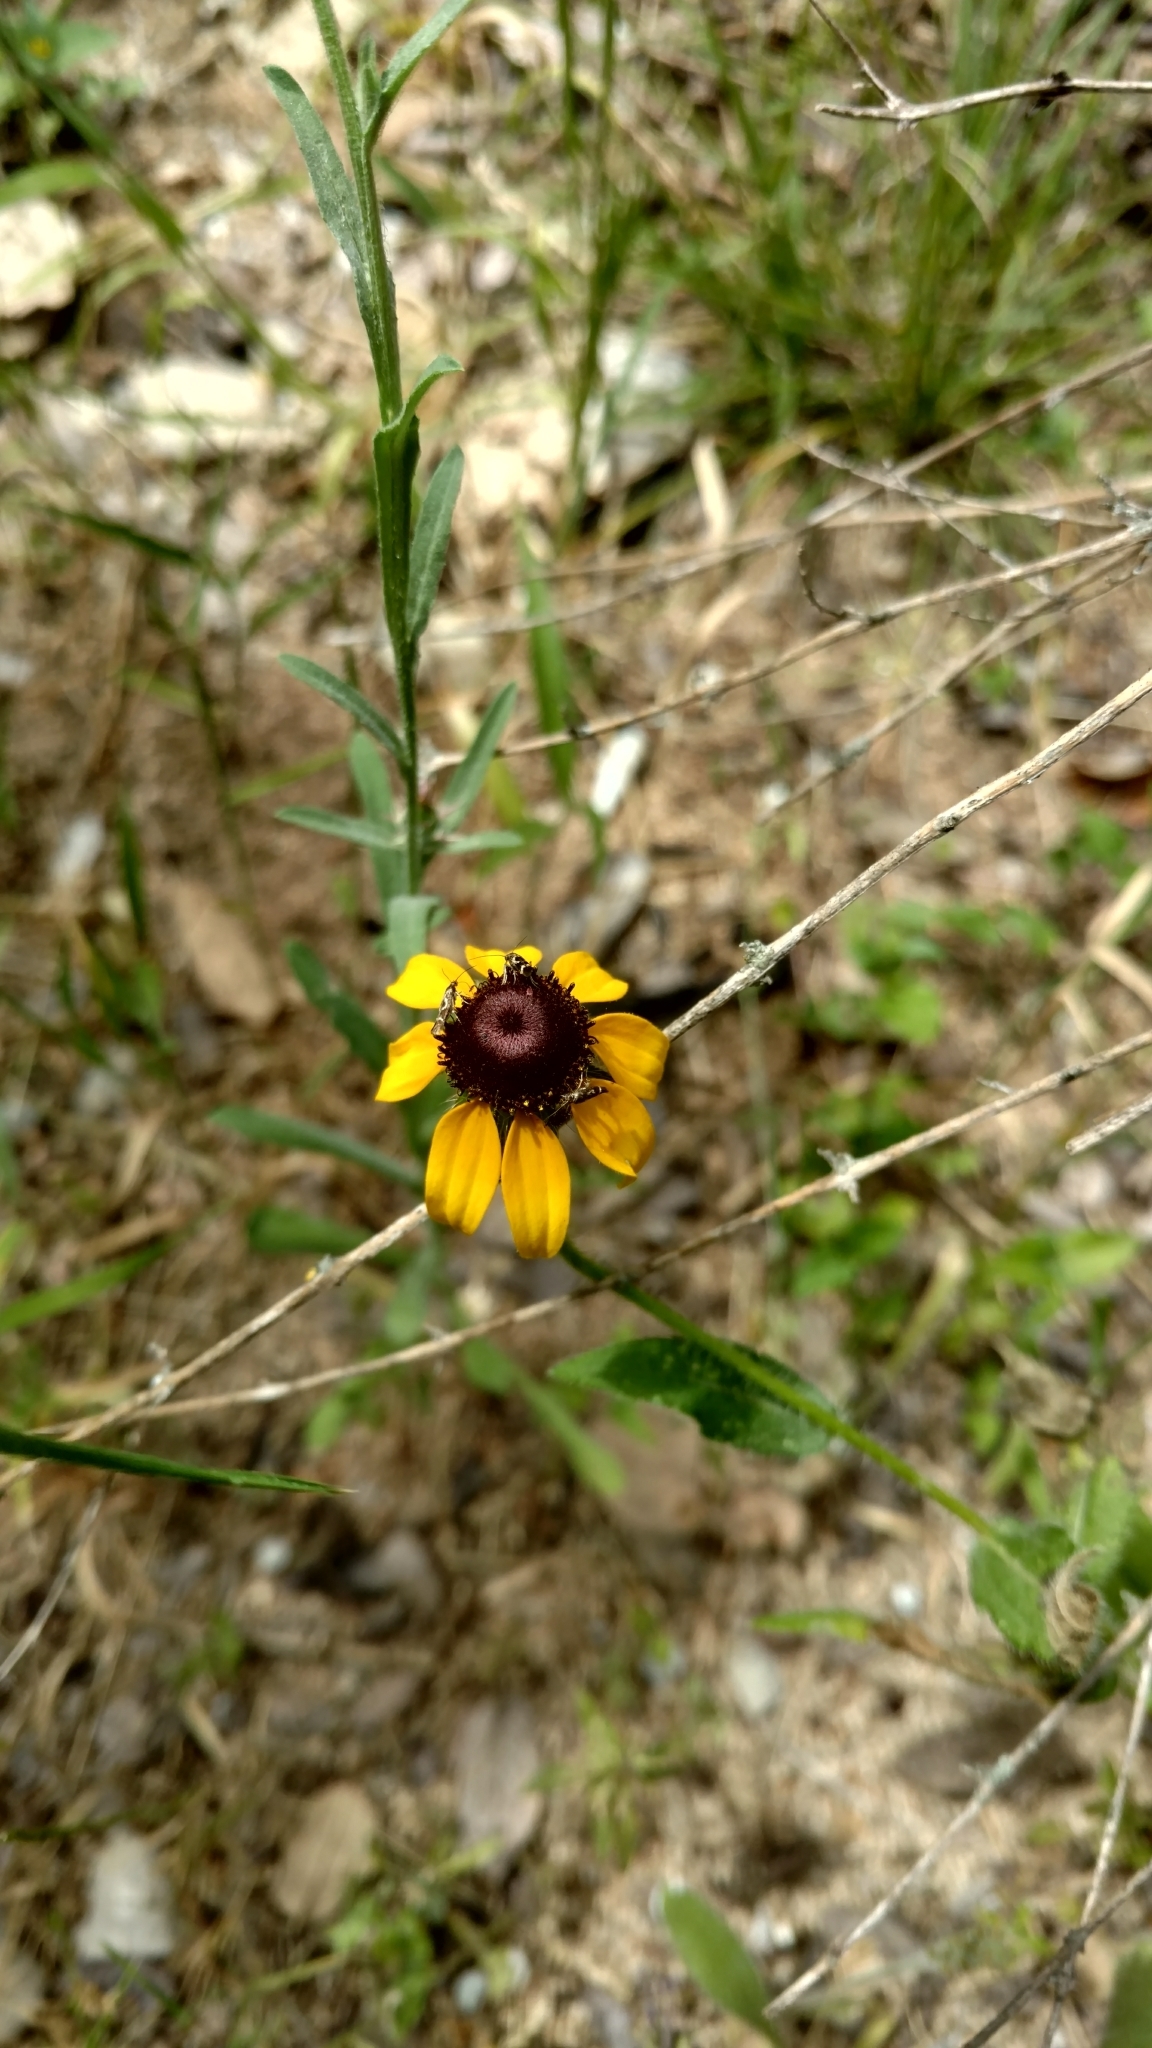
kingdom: Plantae
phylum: Tracheophyta
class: Magnoliopsida
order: Asterales
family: Asteraceae
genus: Rudbeckia
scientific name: Rudbeckia hirta
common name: Black-eyed-susan
